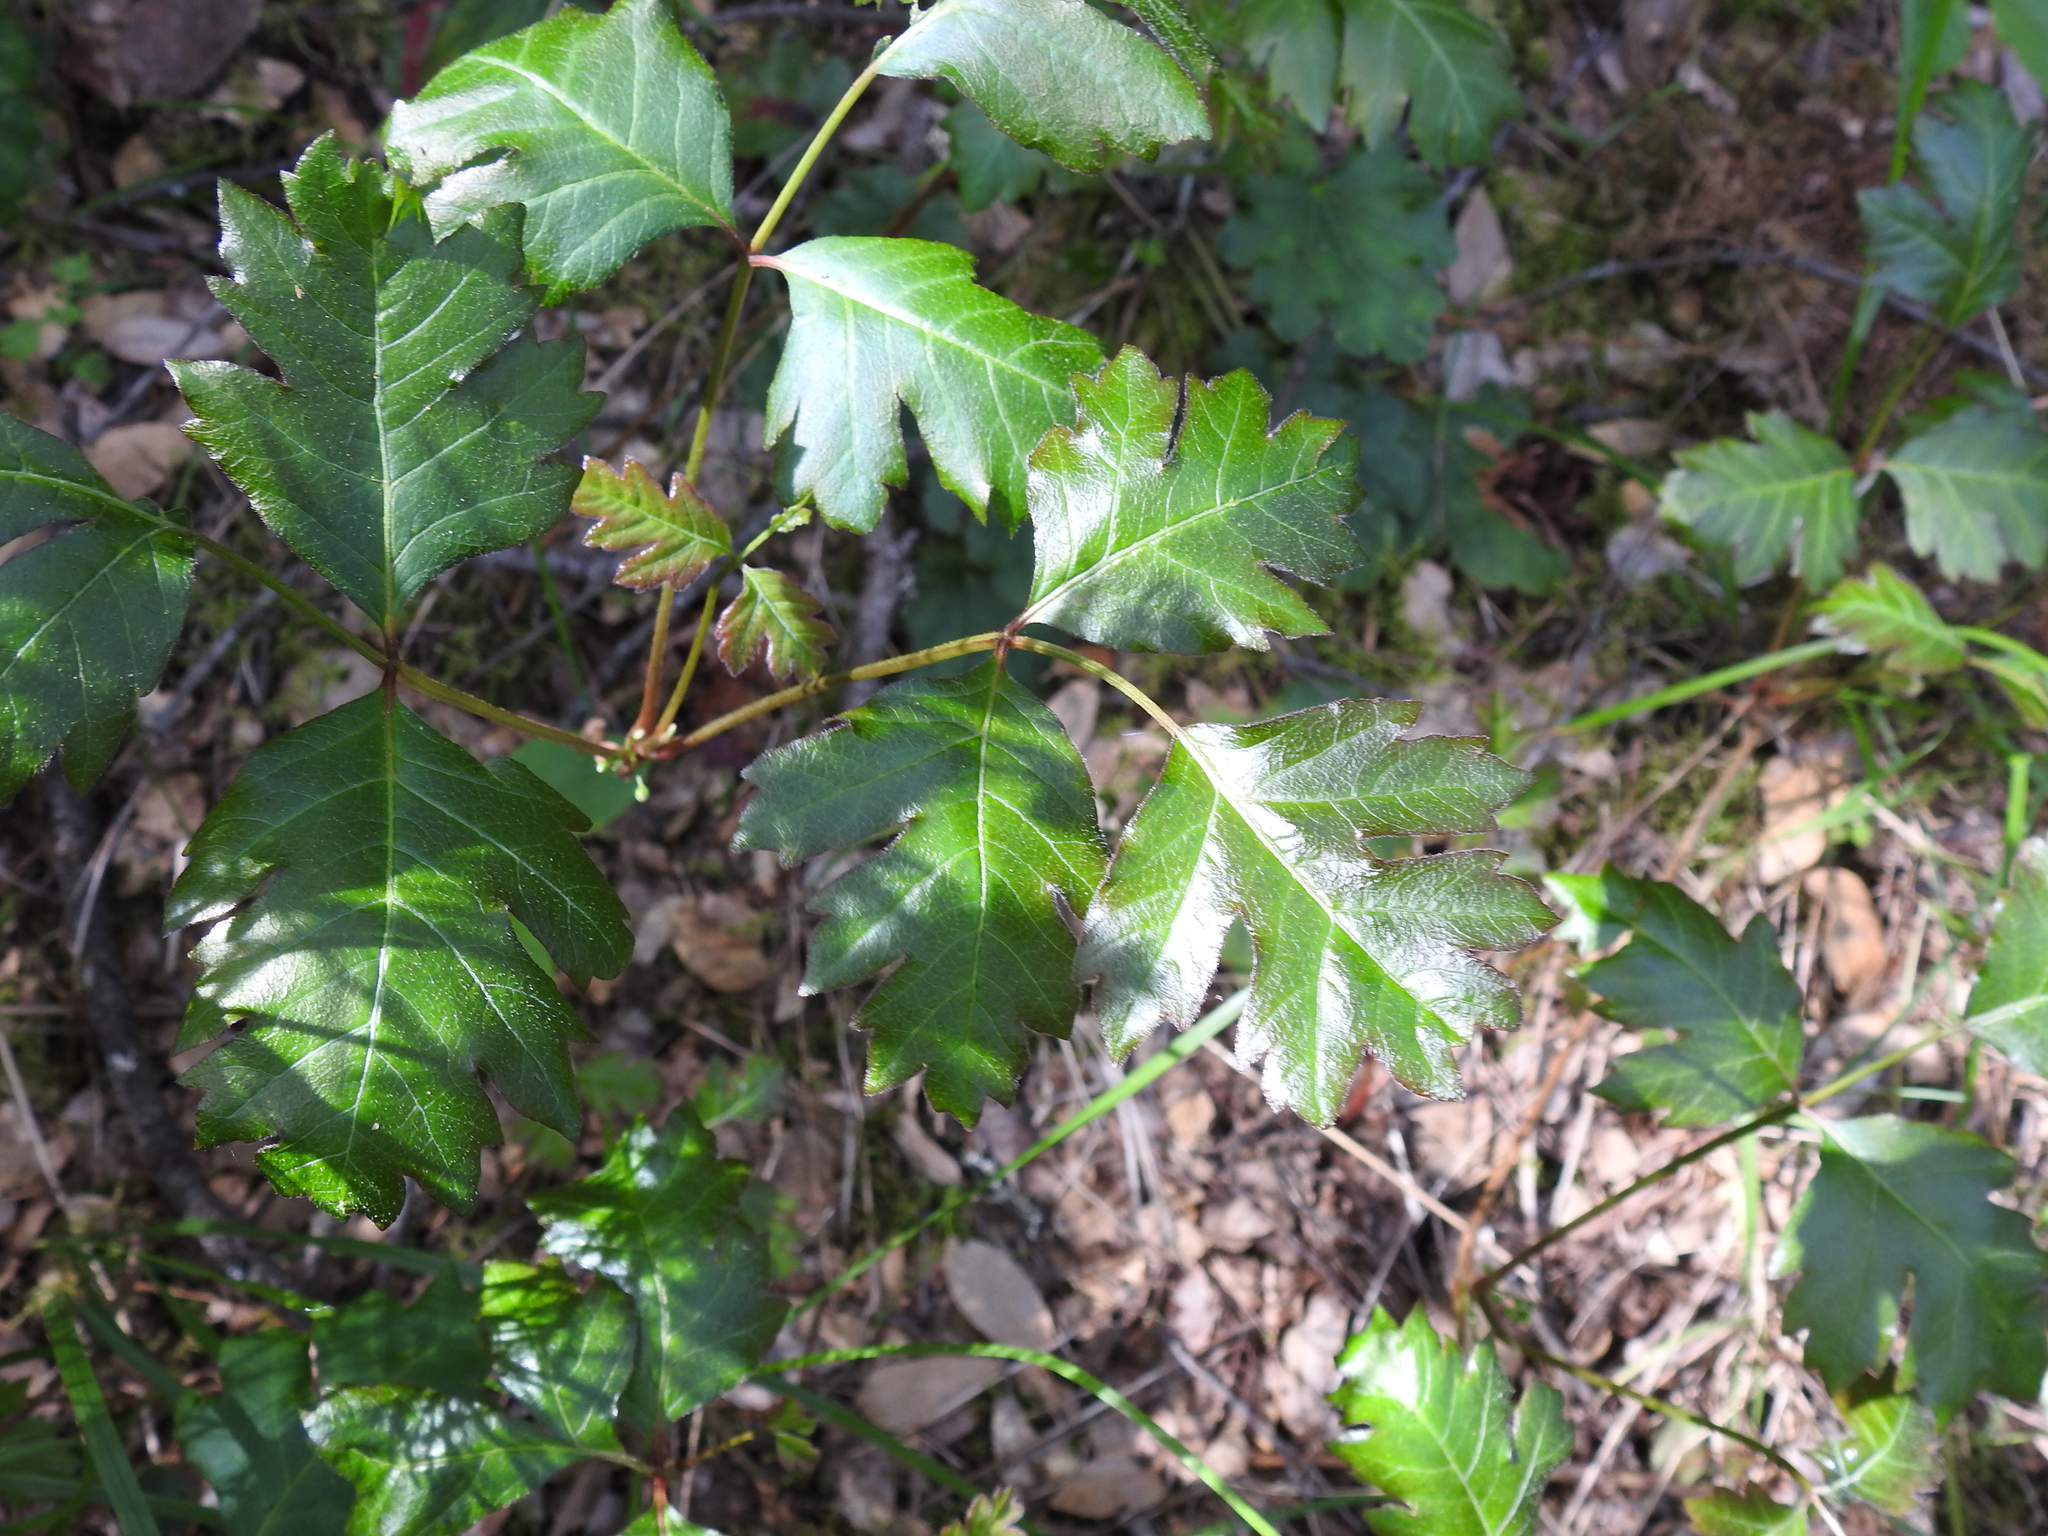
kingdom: Plantae
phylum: Tracheophyta
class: Magnoliopsida
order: Sapindales
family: Anacardiaceae
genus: Toxicodendron
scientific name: Toxicodendron diversilobum
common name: Pacific poison-oak
